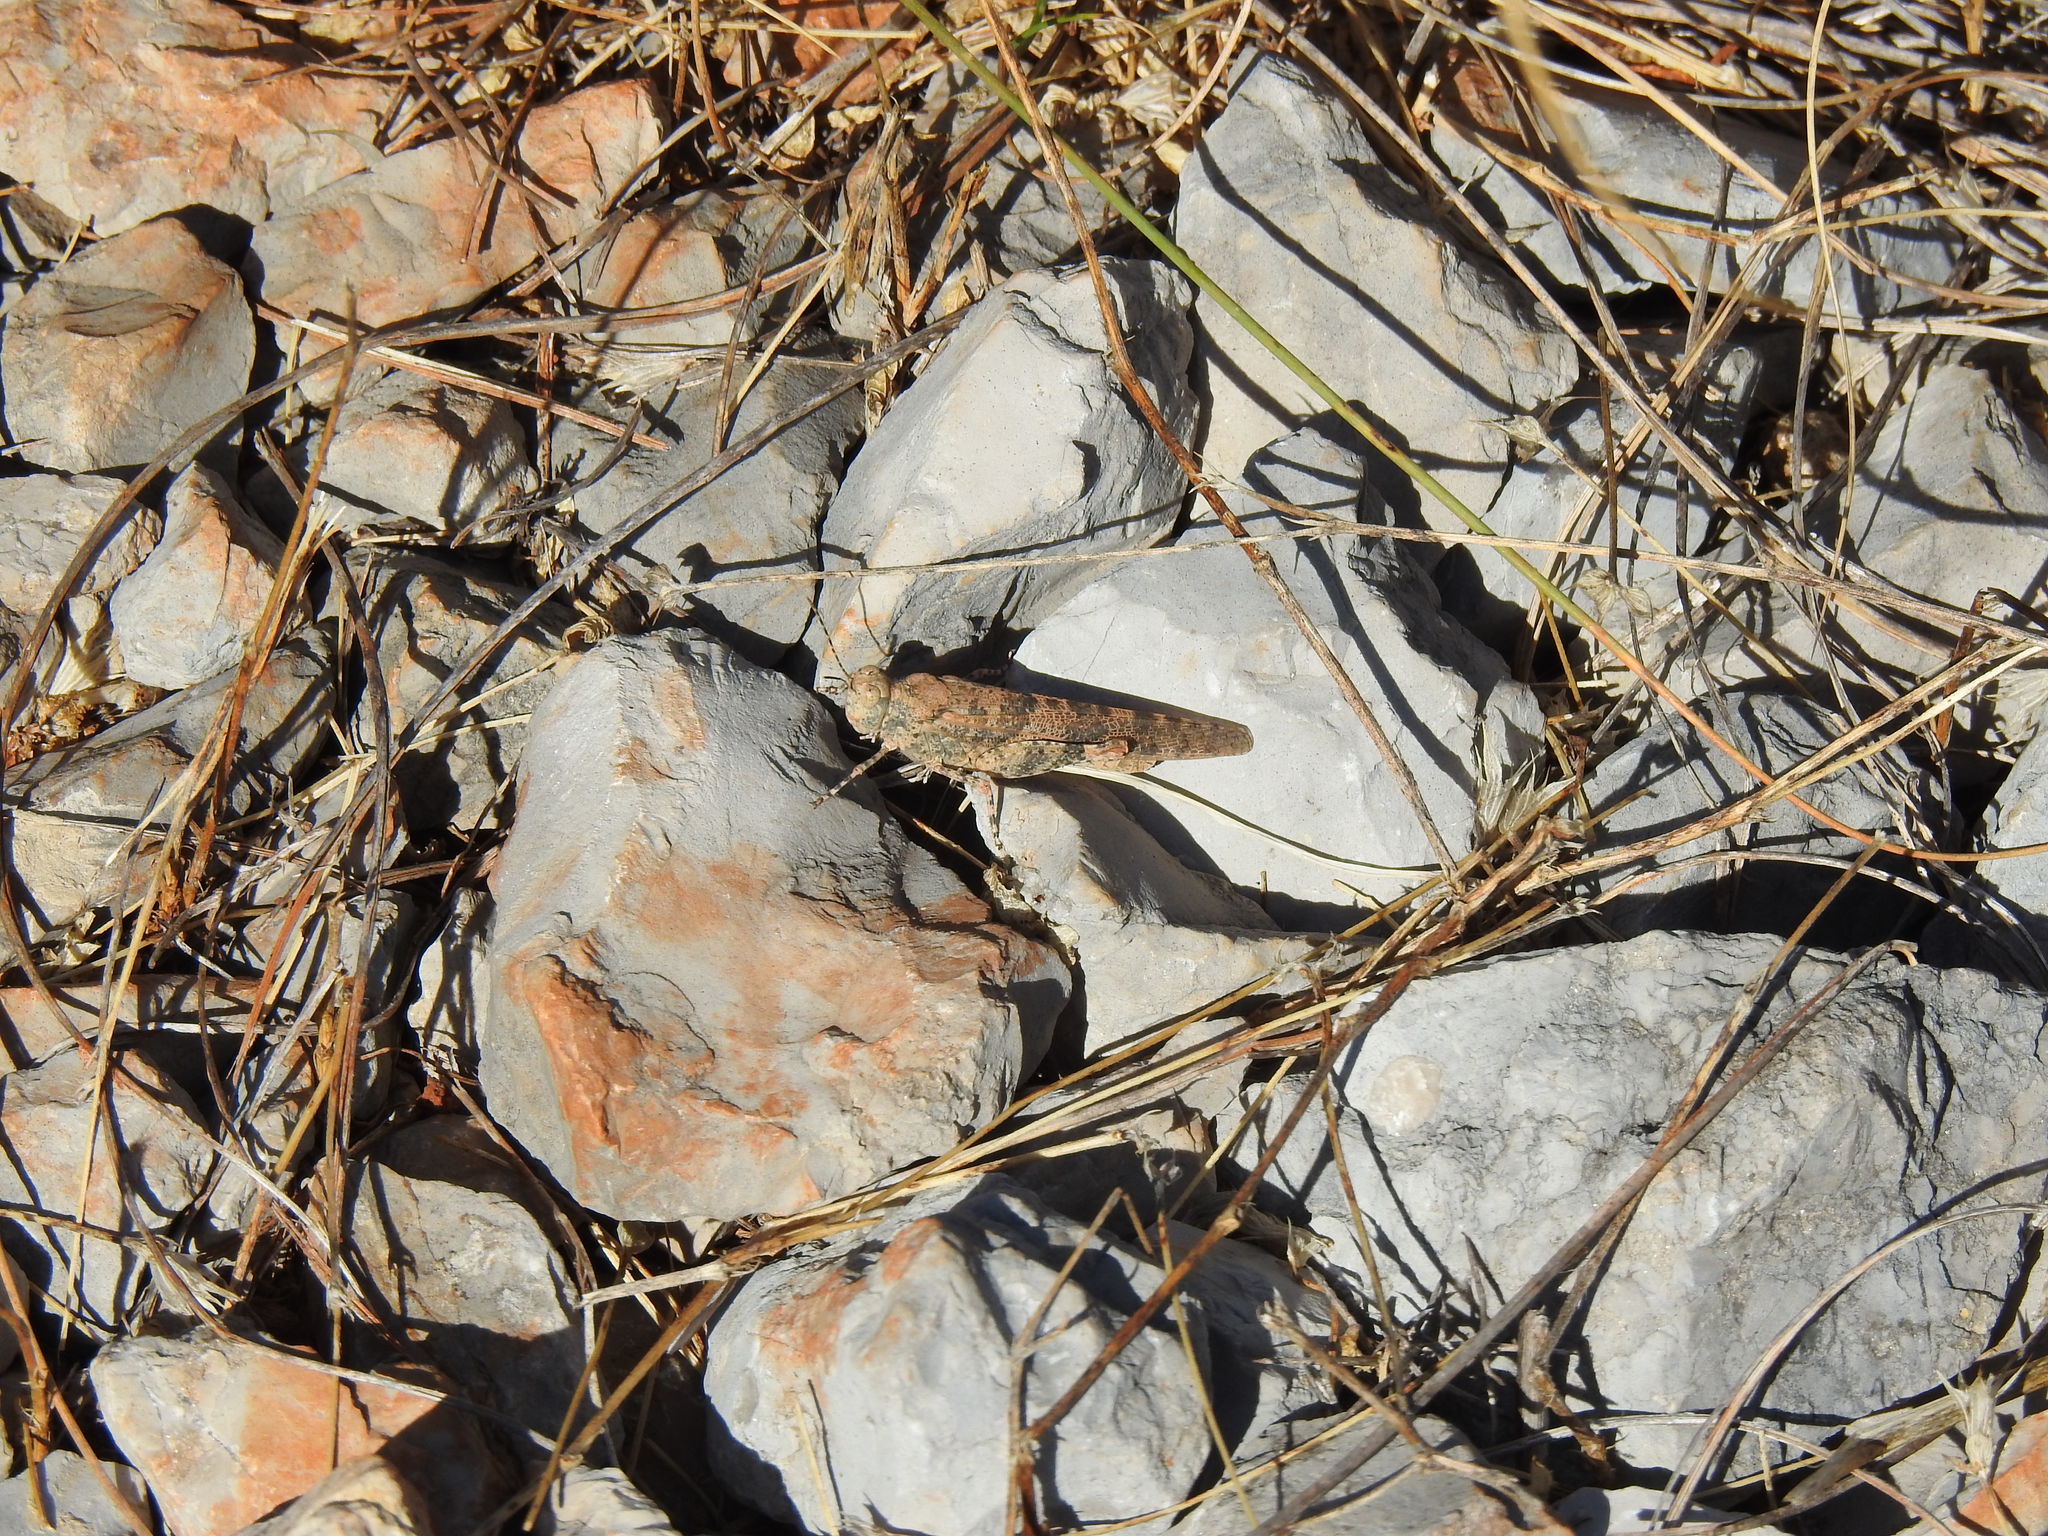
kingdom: Animalia
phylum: Arthropoda
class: Insecta
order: Orthoptera
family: Acrididae
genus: Sphingonotus
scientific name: Sphingonotus rubescens
